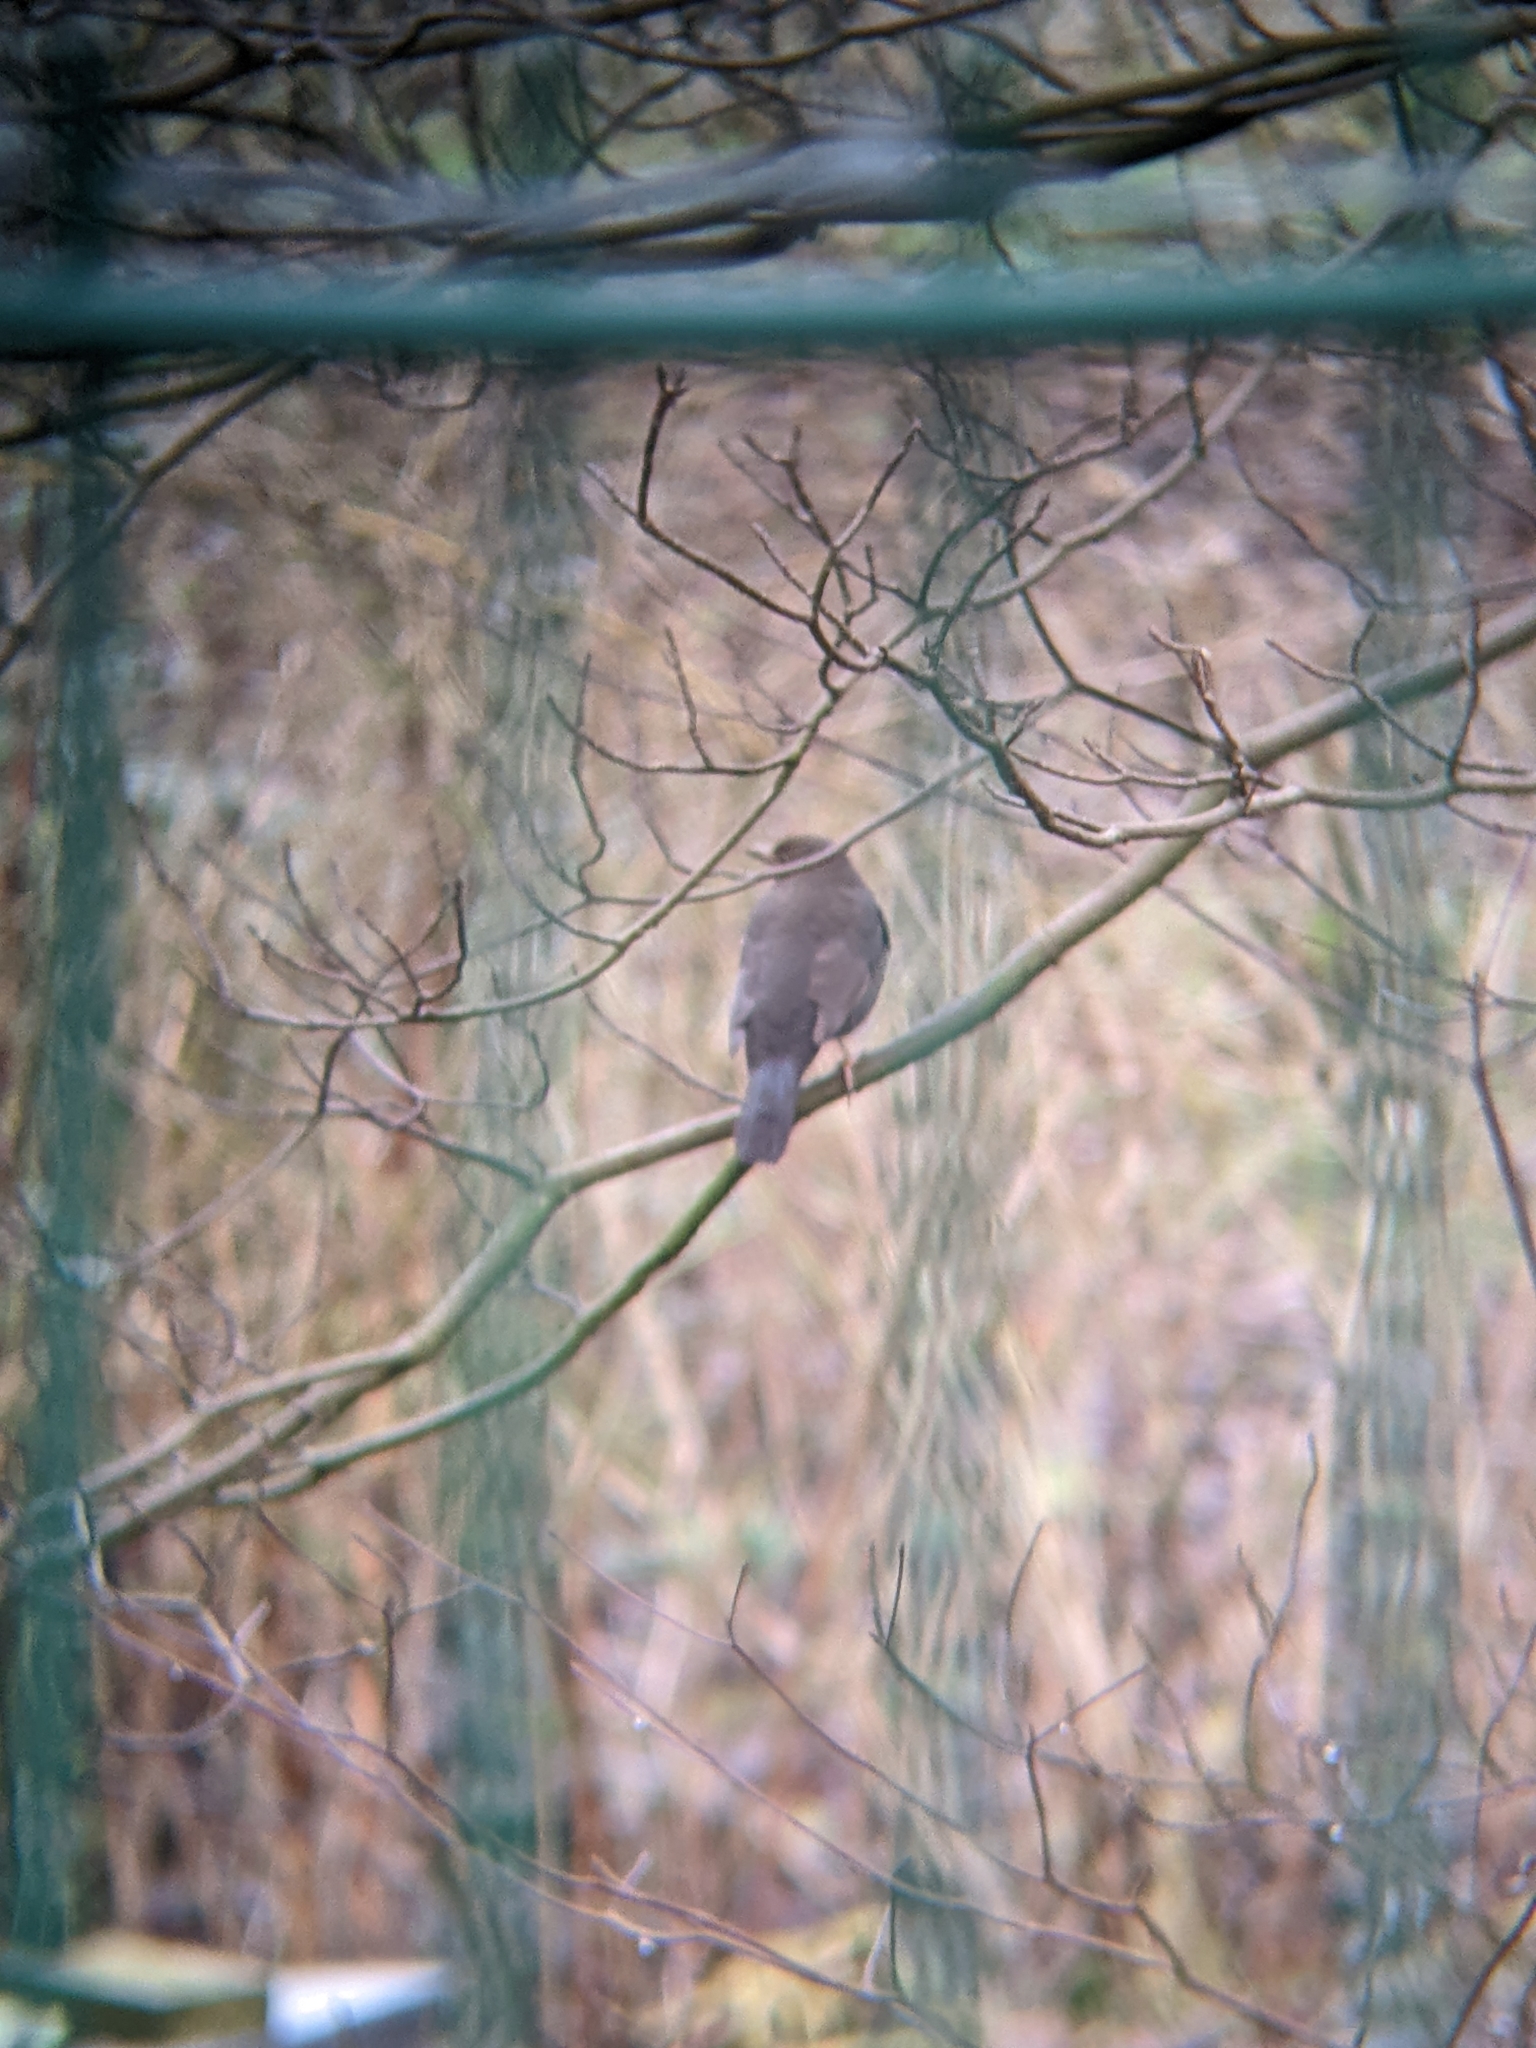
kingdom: Animalia
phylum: Chordata
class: Aves
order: Passeriformes
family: Turdidae
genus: Turdus
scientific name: Turdus merula
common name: Common blackbird
